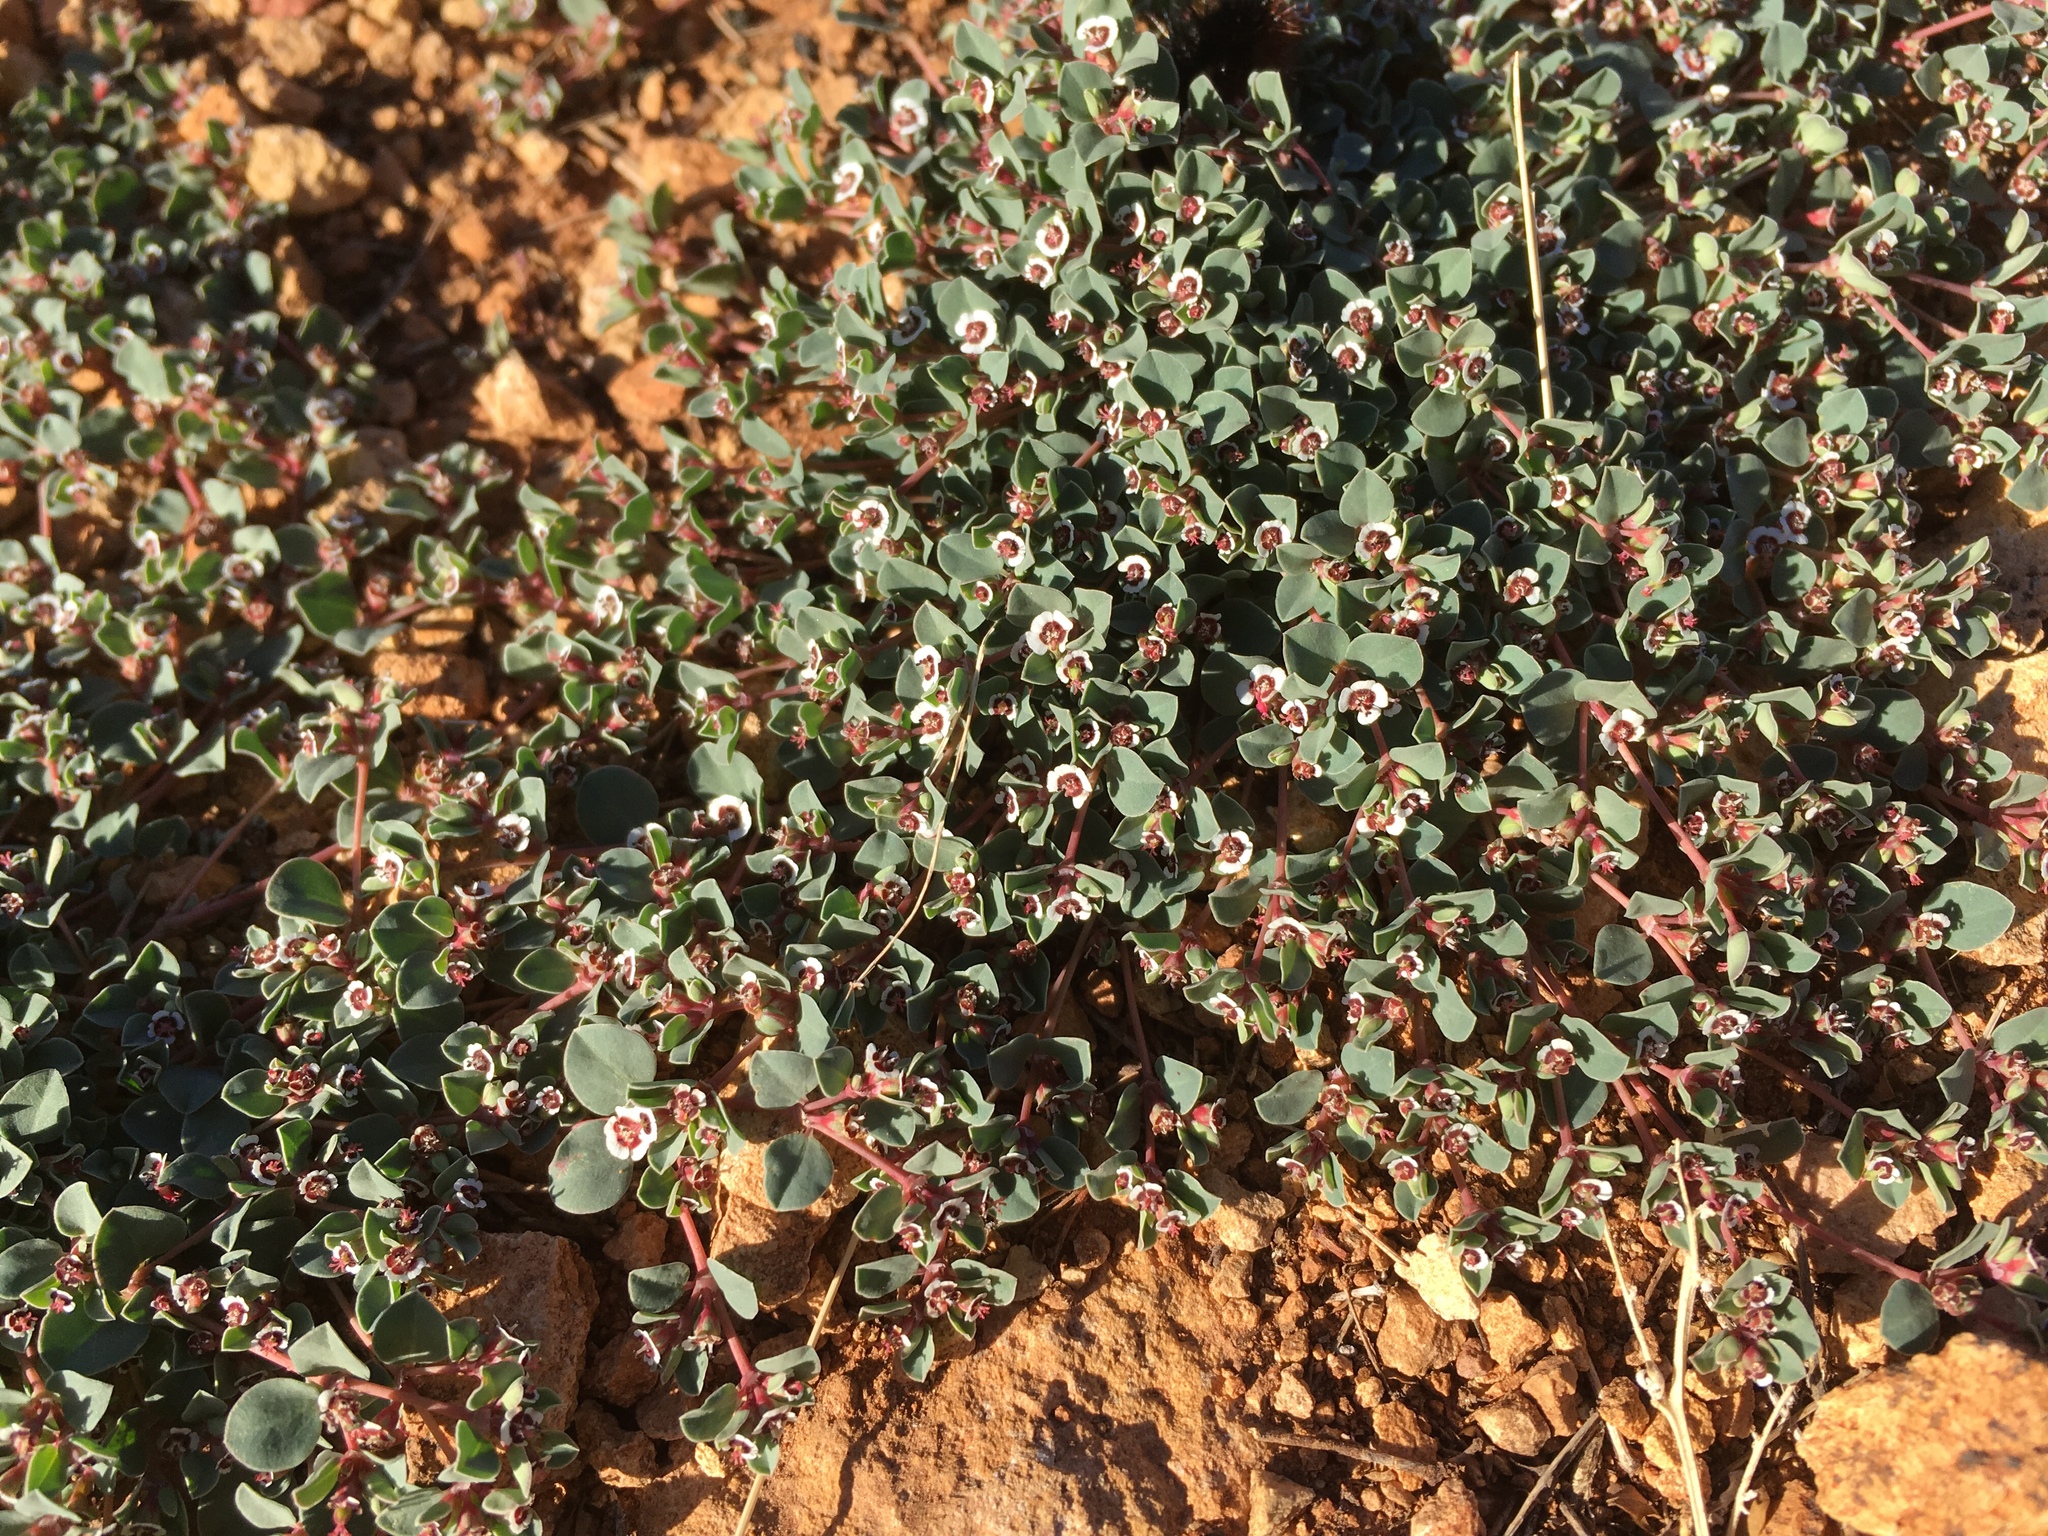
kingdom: Plantae
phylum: Tracheophyta
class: Magnoliopsida
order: Malpighiales
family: Euphorbiaceae
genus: Euphorbia
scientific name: Euphorbia albomarginata
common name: Whitemargin sandmat
